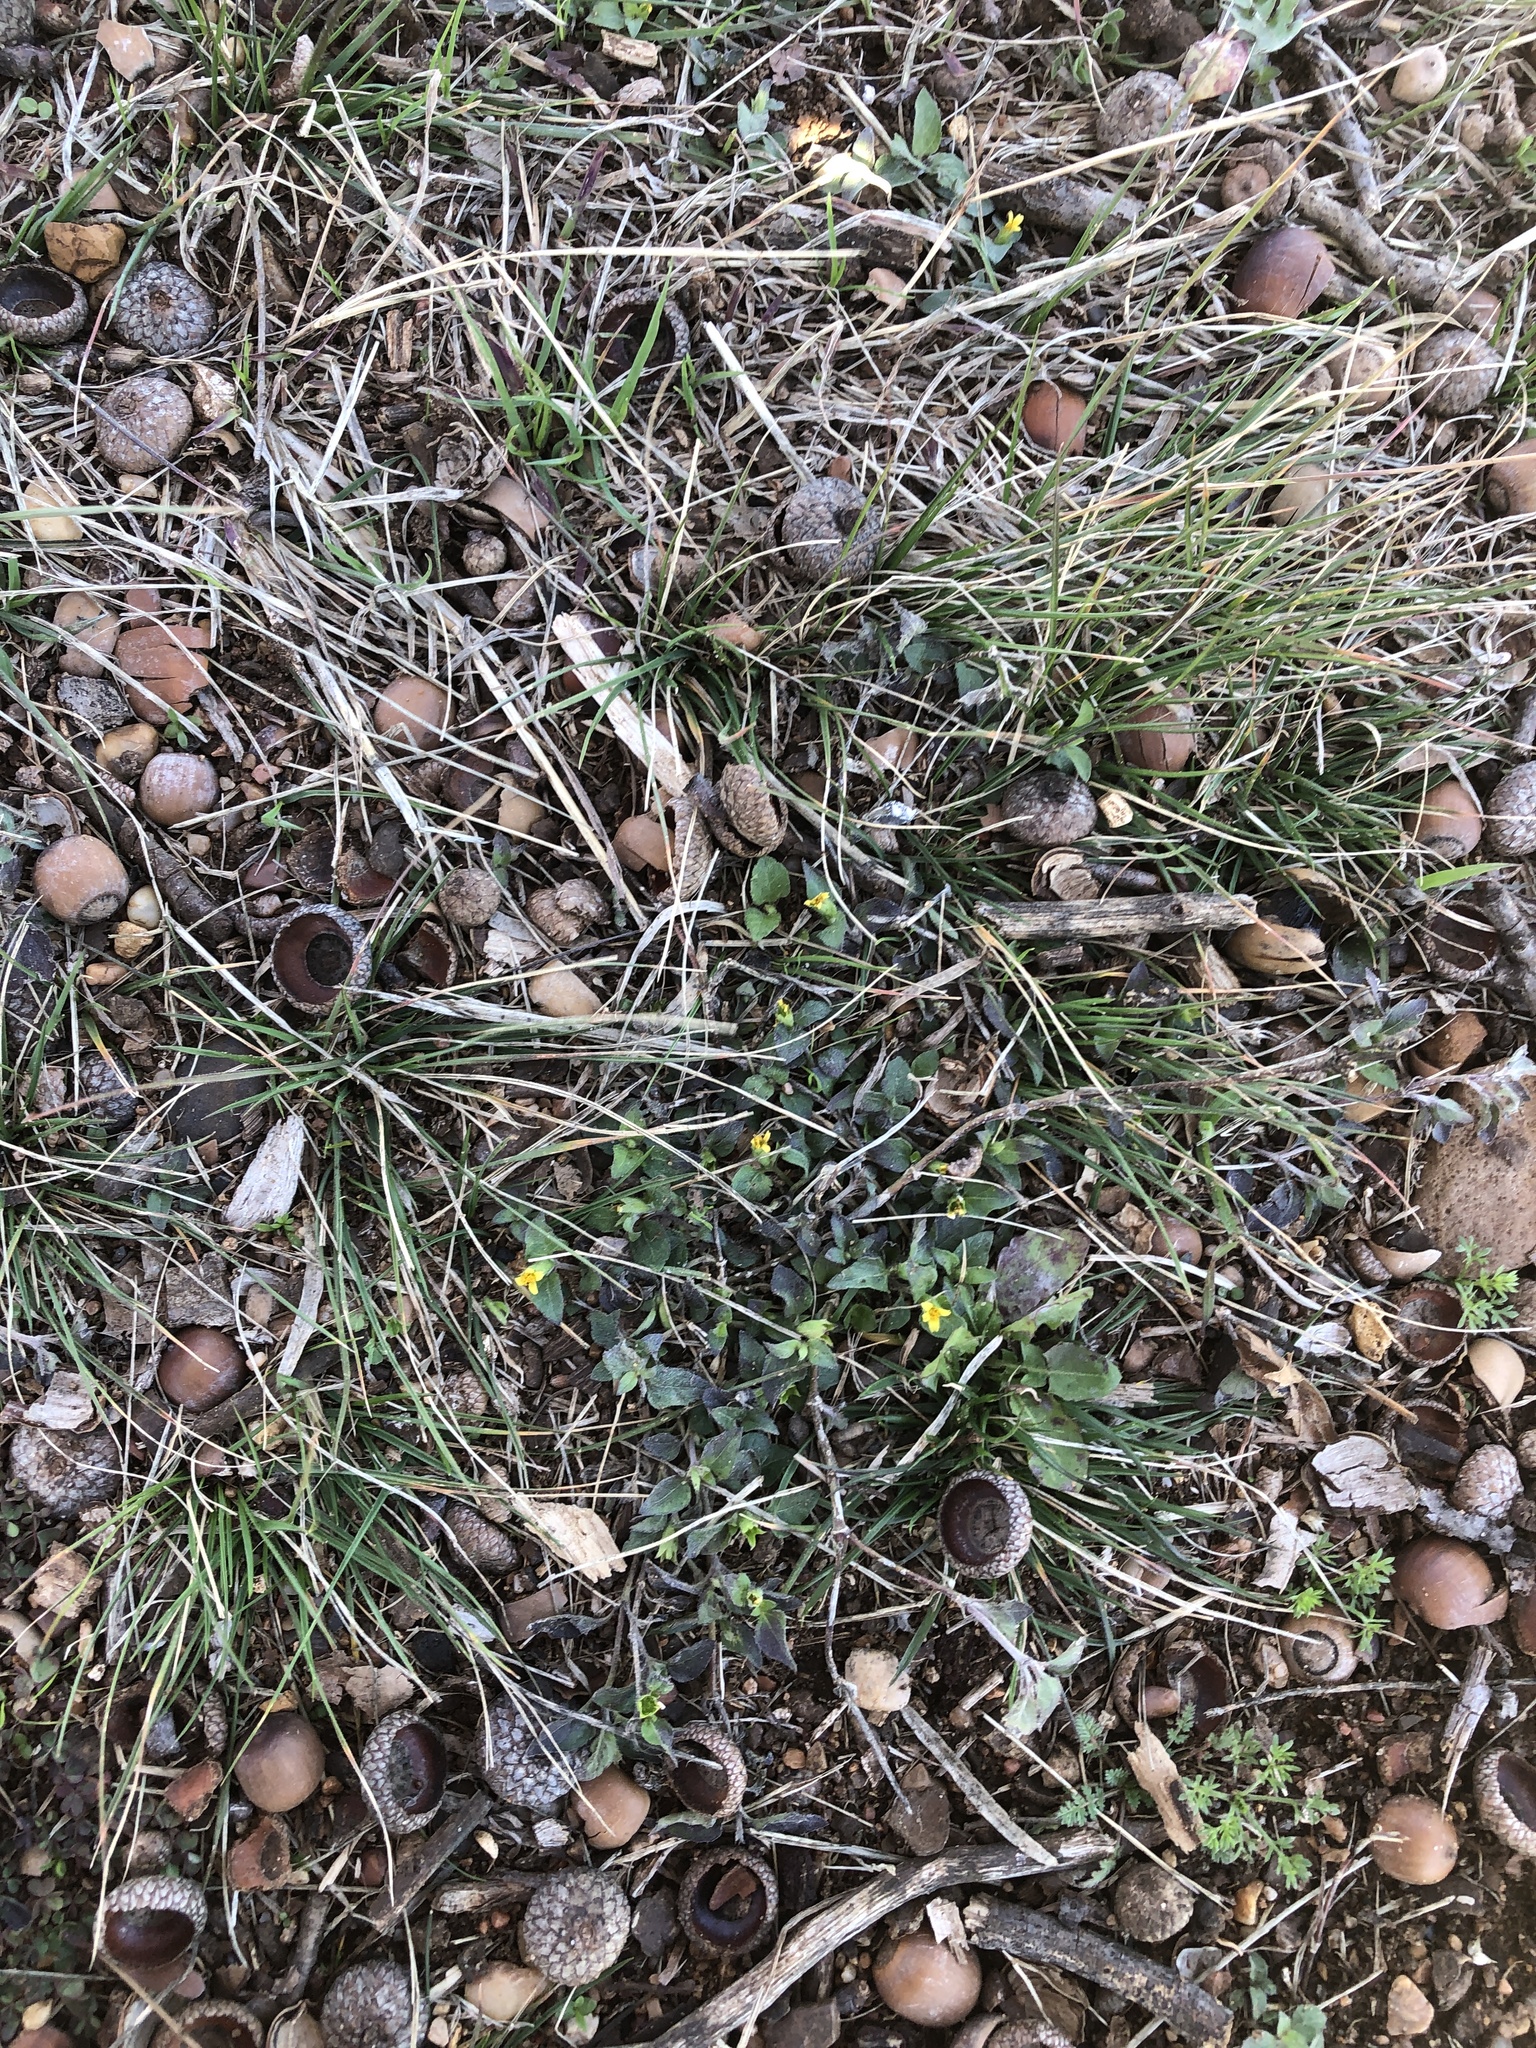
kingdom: Plantae
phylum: Tracheophyta
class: Magnoliopsida
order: Asterales
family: Asteraceae
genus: Calyptocarpus
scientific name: Calyptocarpus vialis
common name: Straggler daisy
